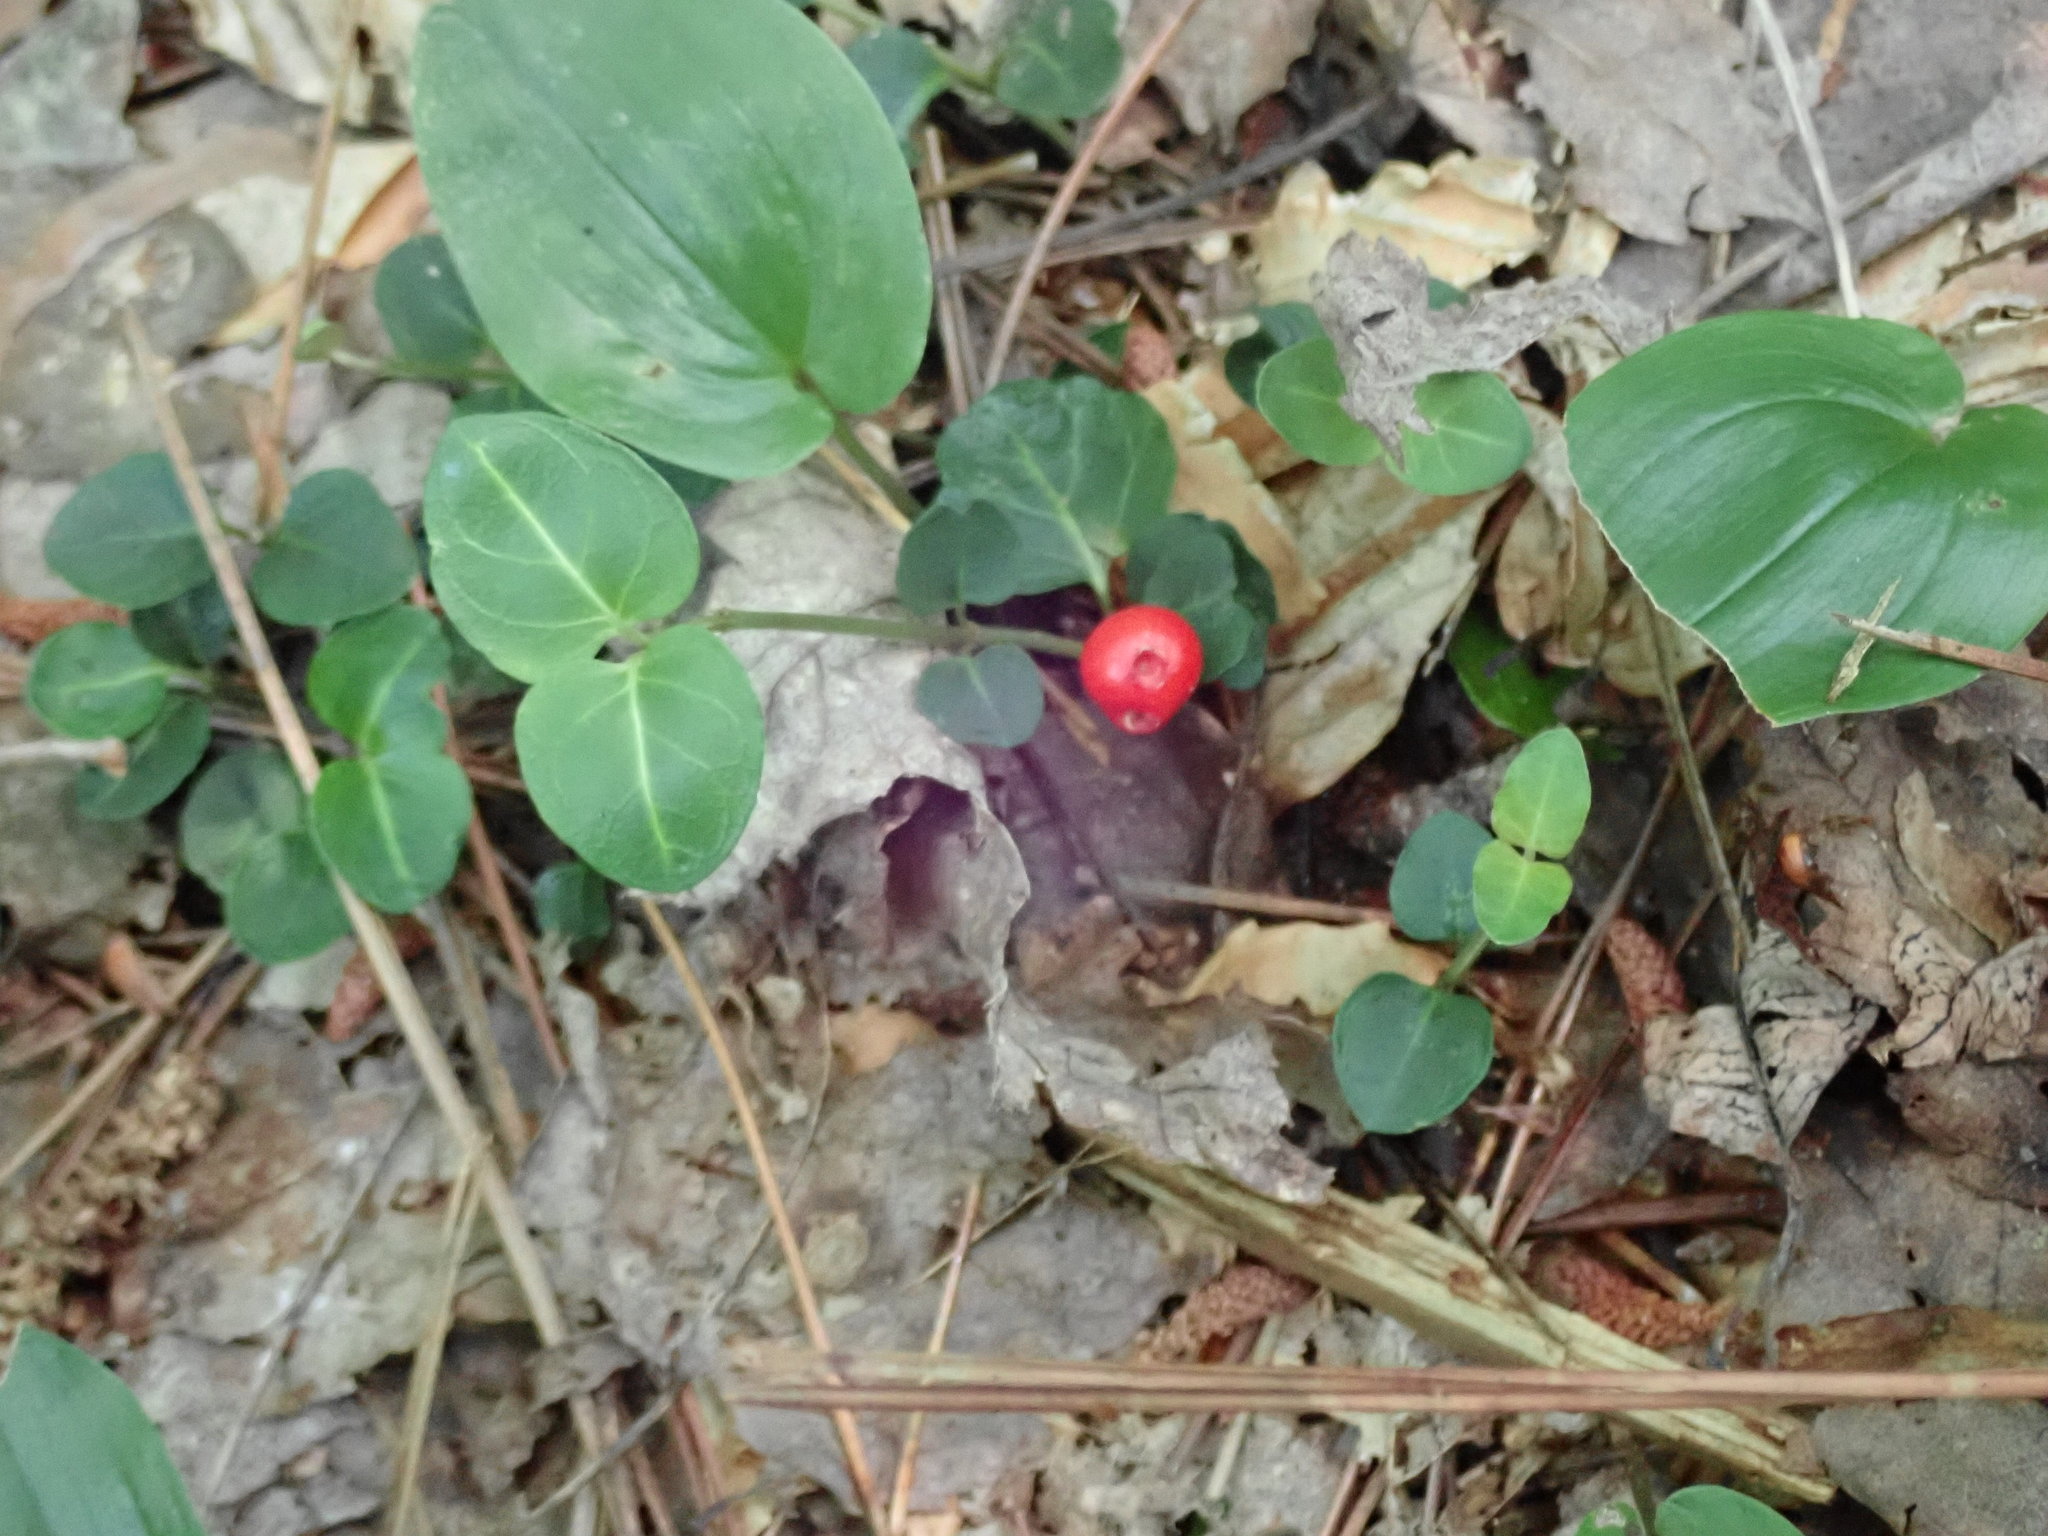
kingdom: Plantae
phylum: Tracheophyta
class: Magnoliopsida
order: Gentianales
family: Rubiaceae
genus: Mitchella
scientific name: Mitchella repens
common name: Partridge-berry
